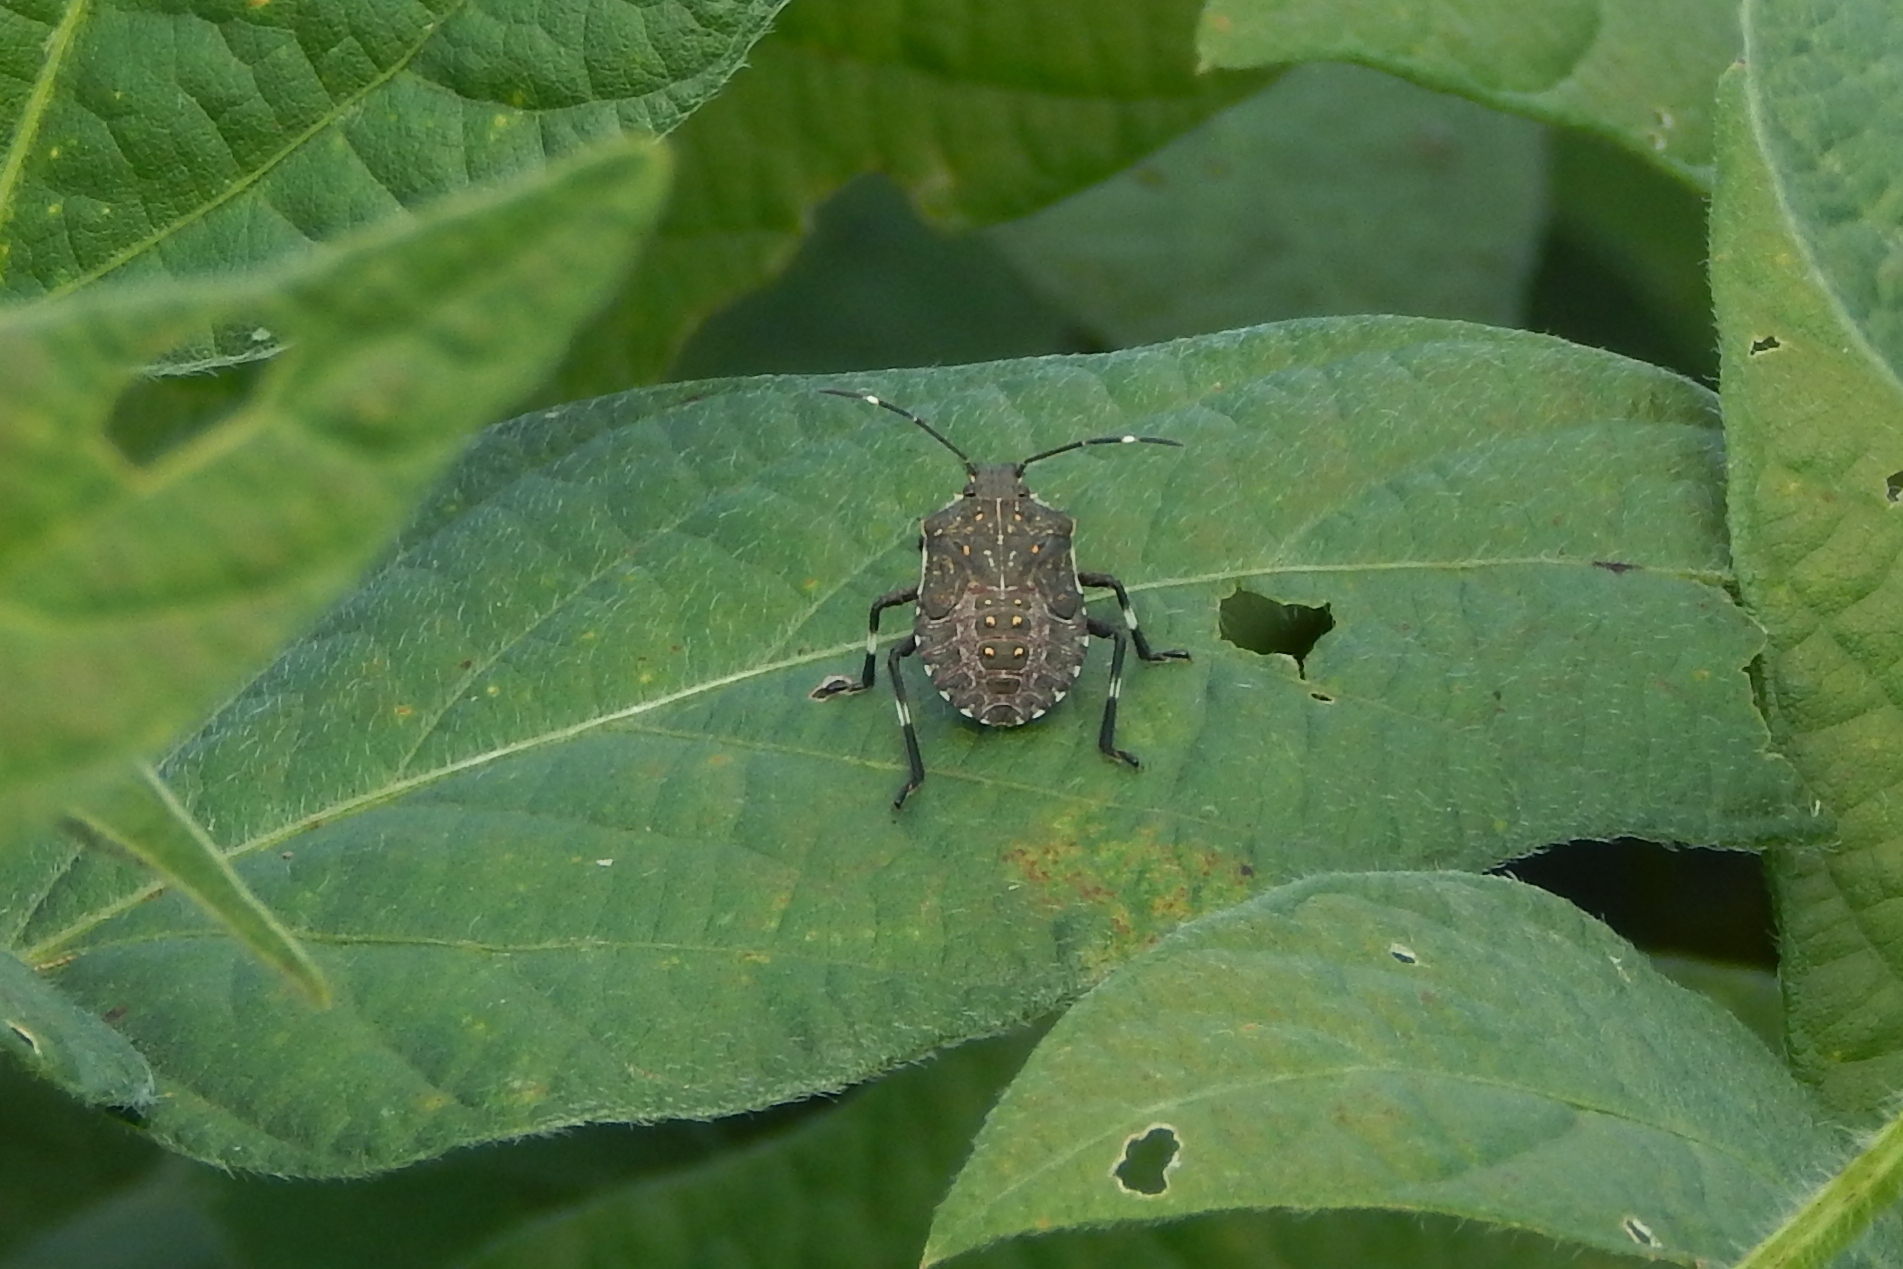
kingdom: Animalia
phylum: Arthropoda
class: Insecta
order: Hemiptera
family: Pentatomidae
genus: Halyomorpha
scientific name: Halyomorpha halys
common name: Brown marmorated stink bug
